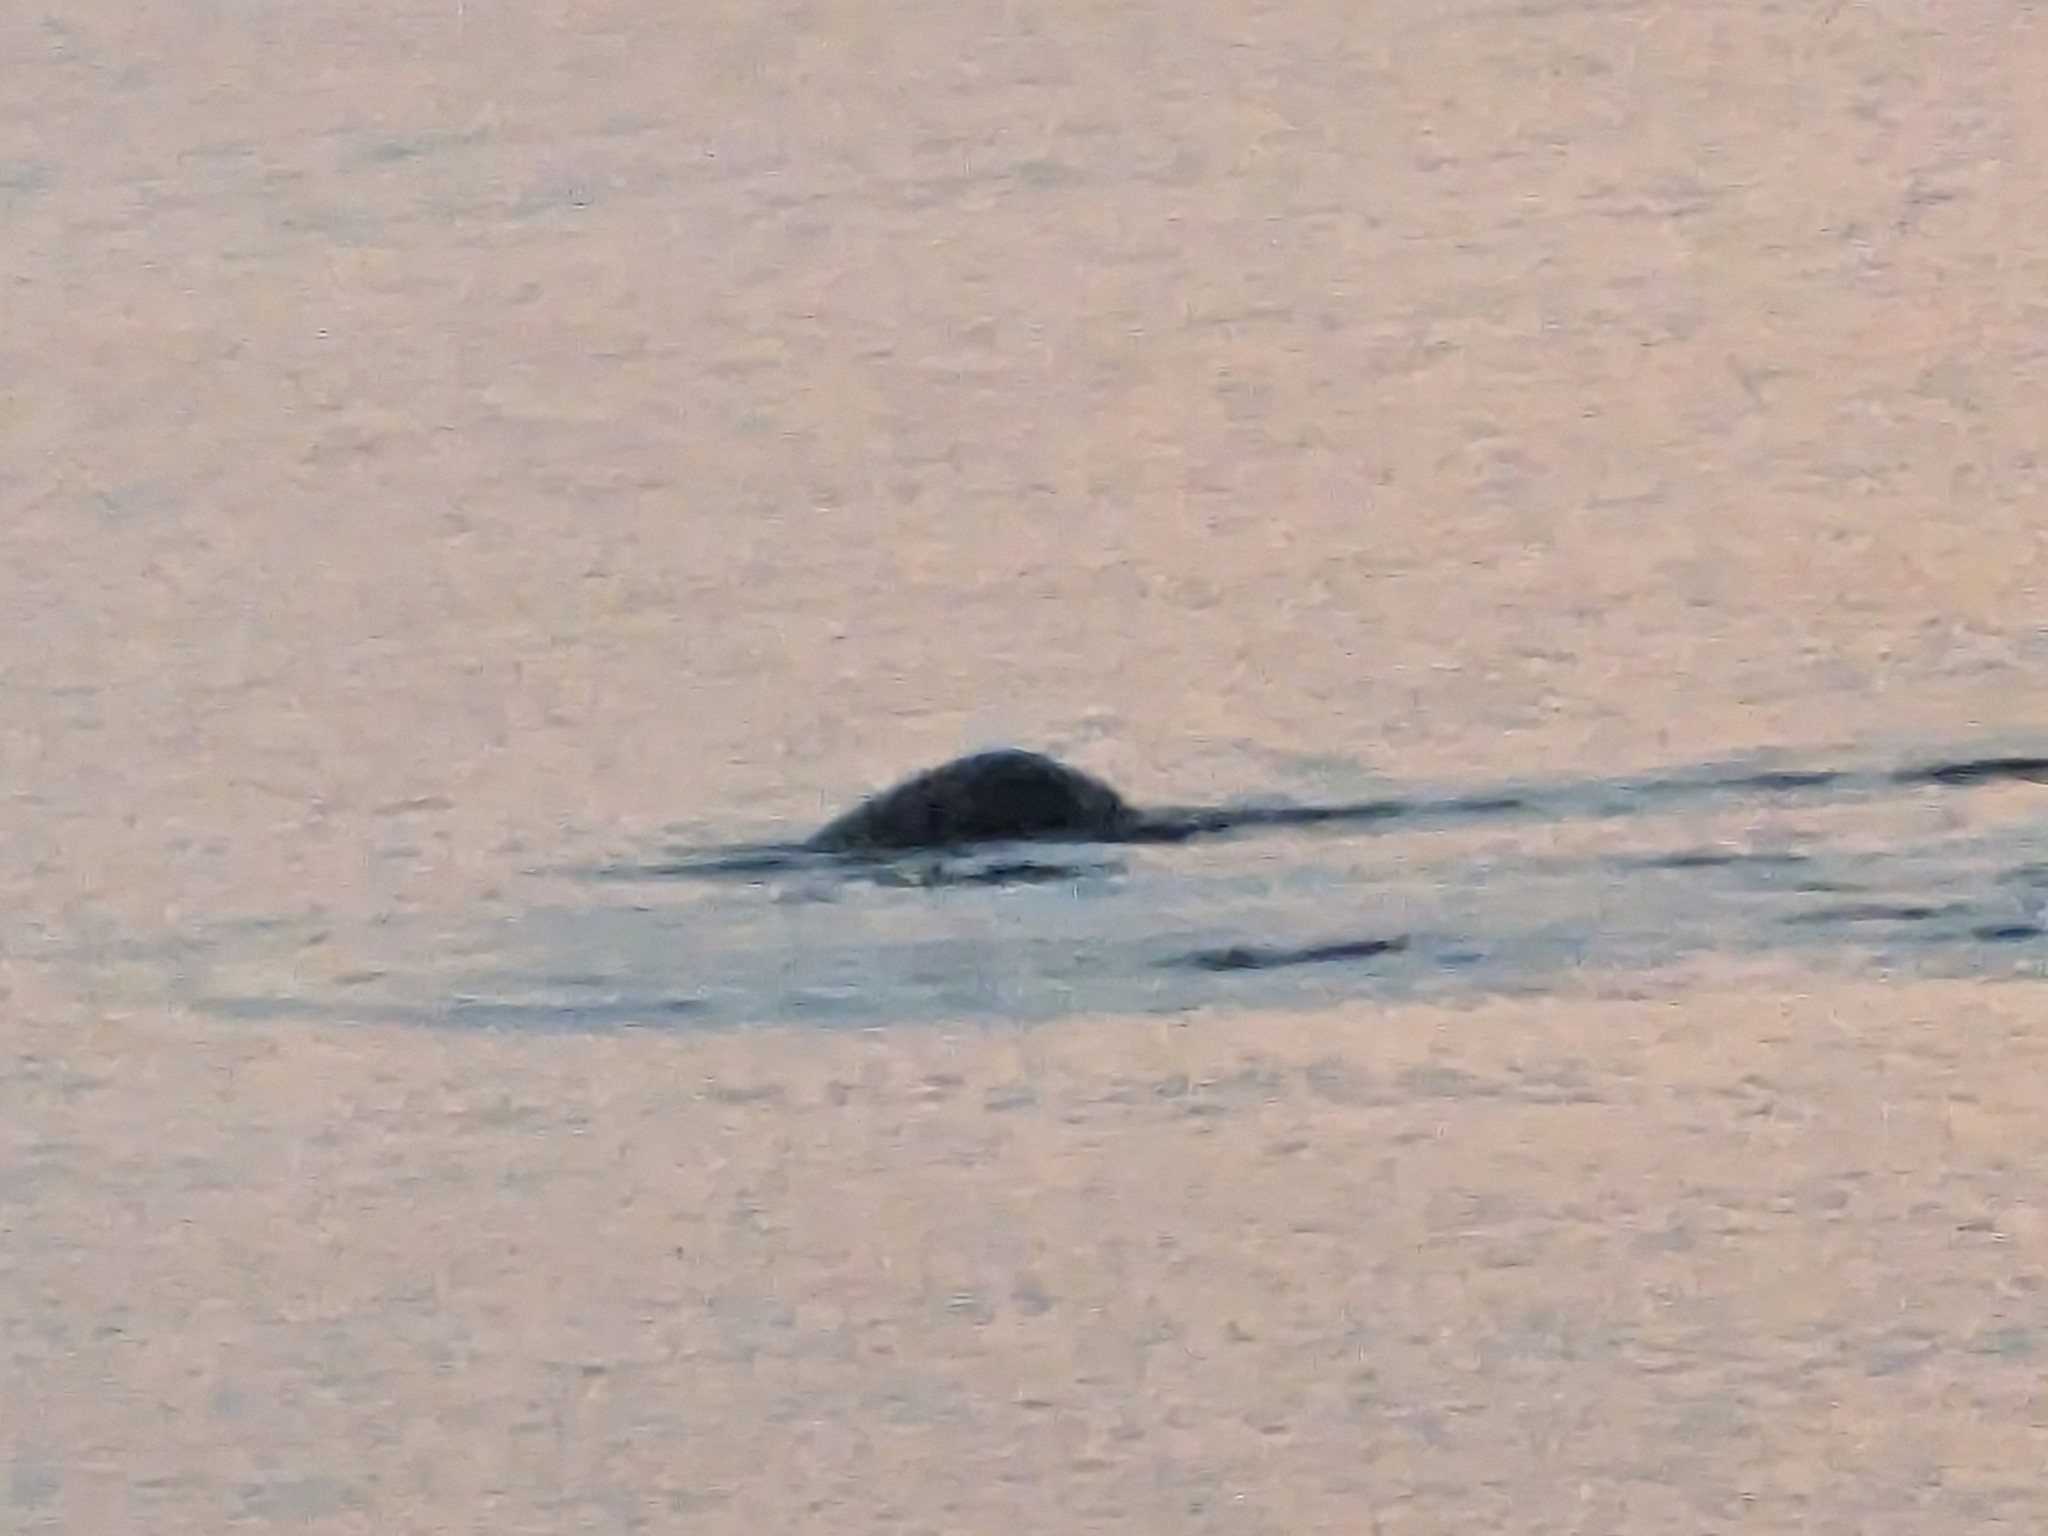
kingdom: Animalia
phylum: Chordata
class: Mammalia
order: Carnivora
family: Phocidae
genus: Phoca
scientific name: Phoca vitulina
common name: Harbor seal
